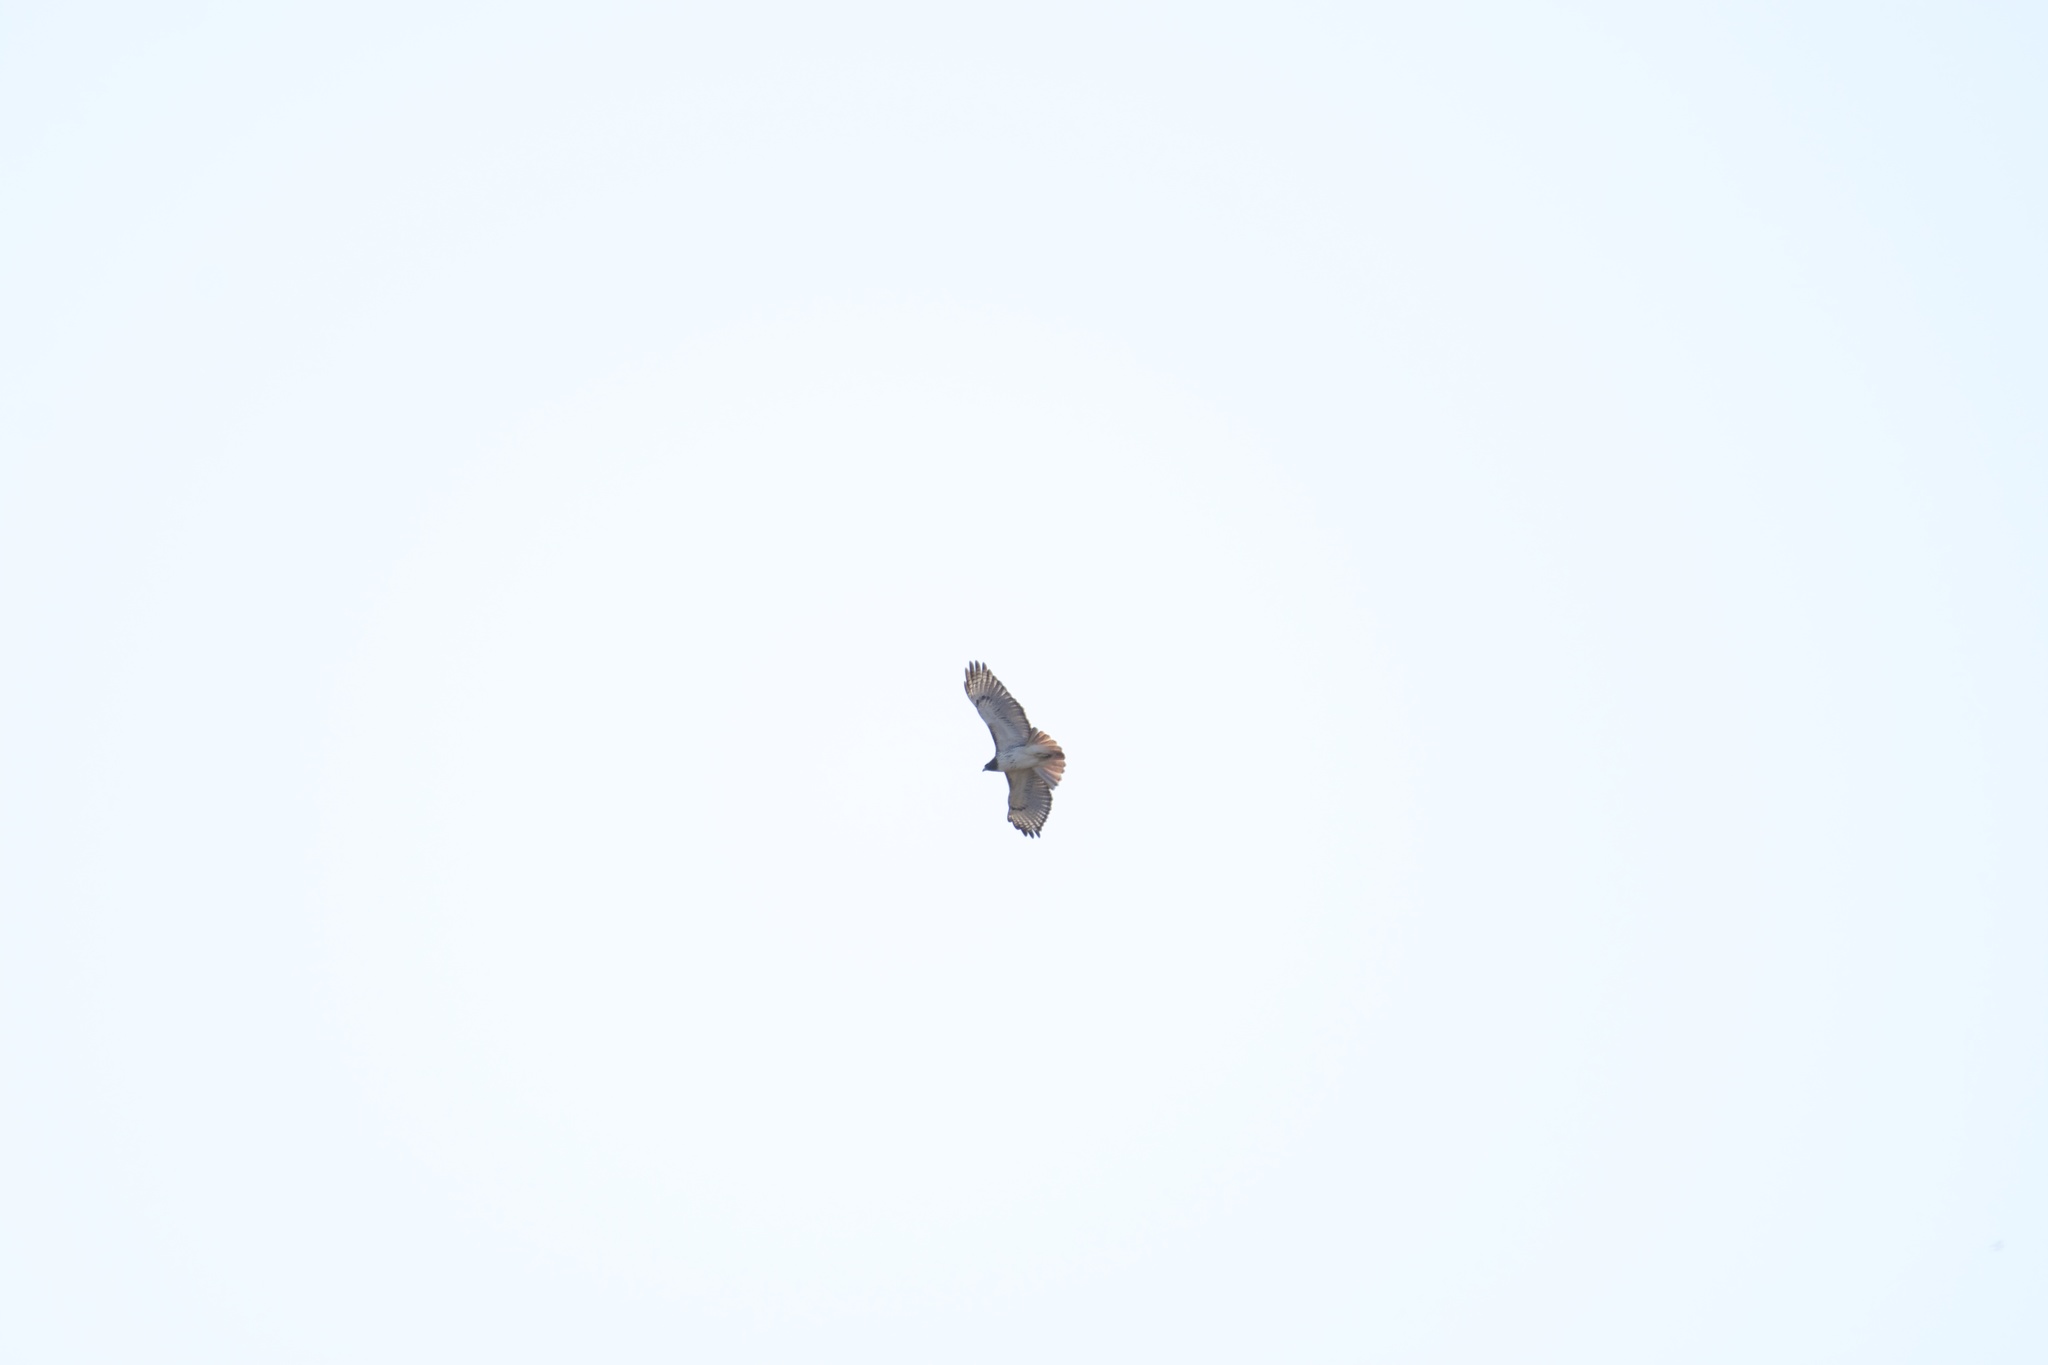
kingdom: Animalia
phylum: Chordata
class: Aves
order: Accipitriformes
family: Accipitridae
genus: Buteo
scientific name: Buteo jamaicensis
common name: Red-tailed hawk
